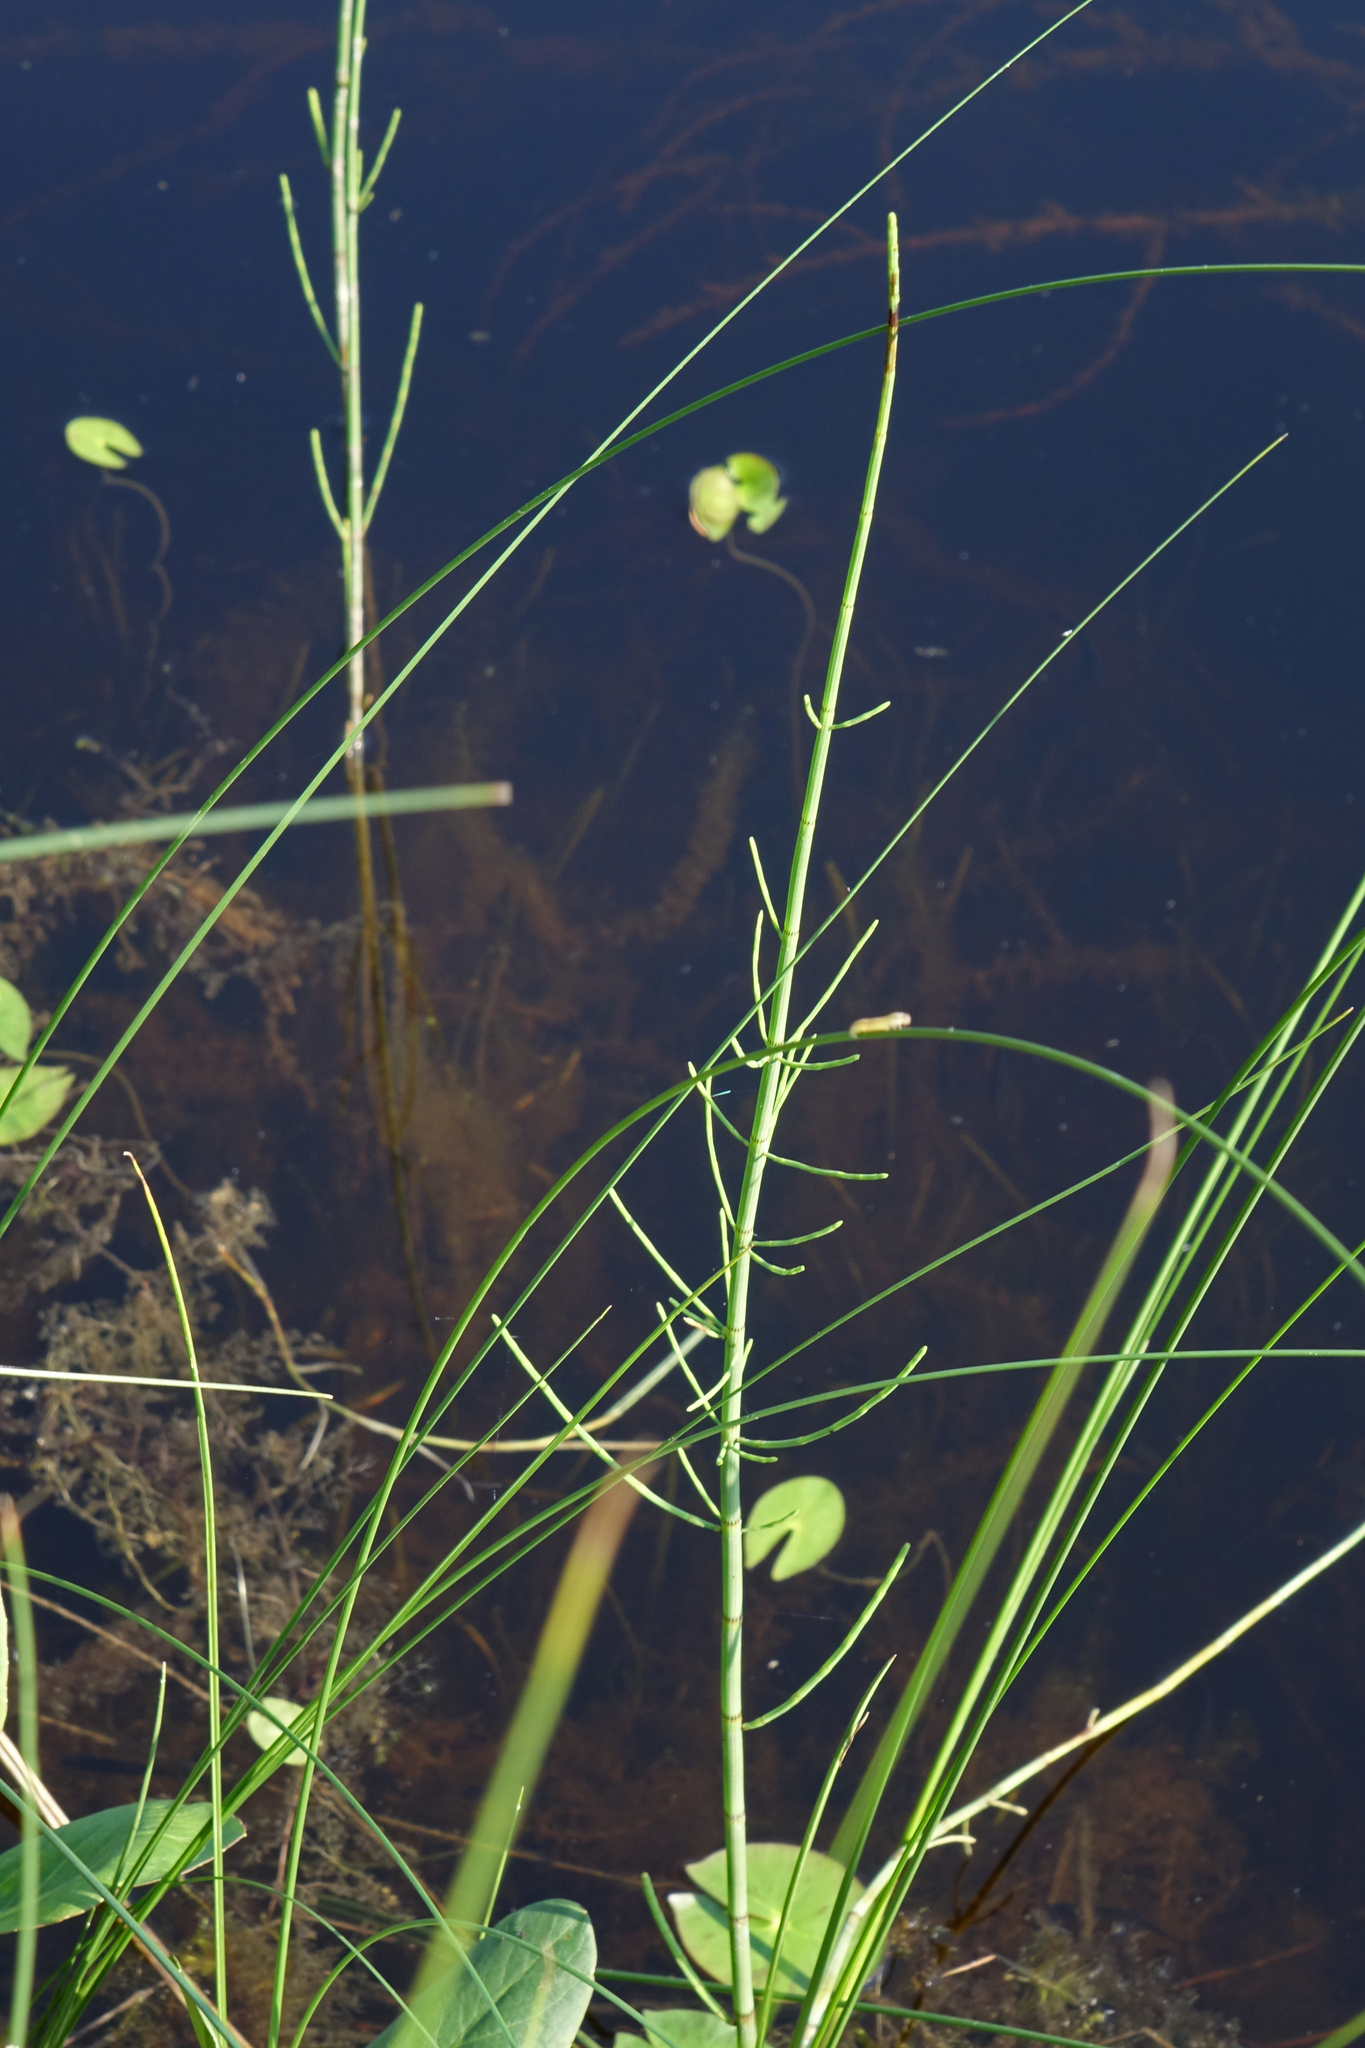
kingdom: Plantae
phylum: Tracheophyta
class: Polypodiopsida
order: Equisetales
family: Equisetaceae
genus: Equisetum
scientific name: Equisetum fluviatile
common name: Water horsetail
